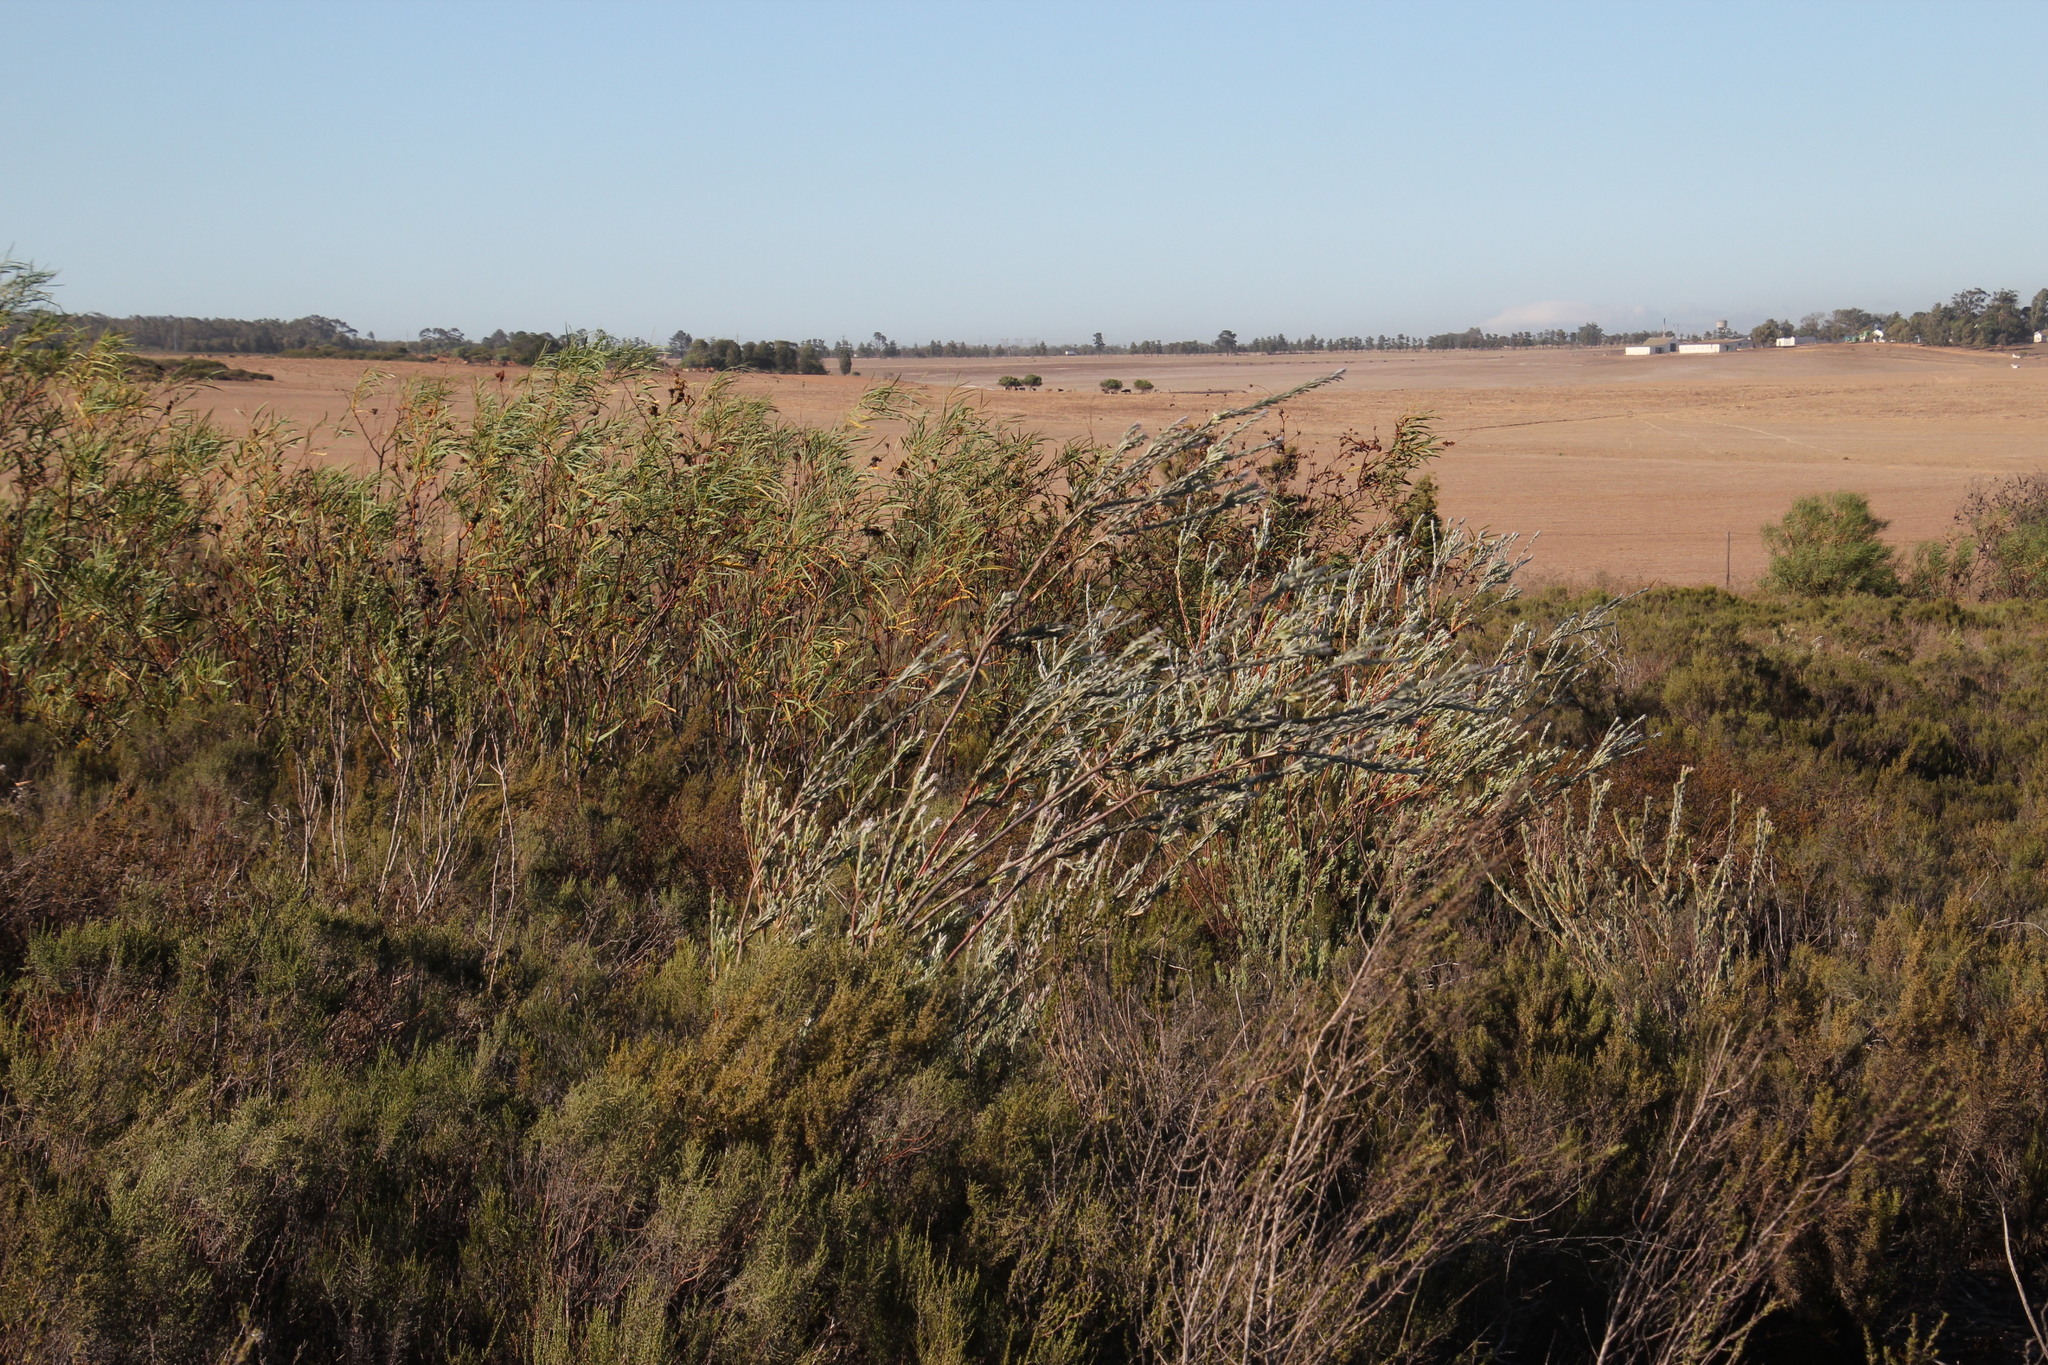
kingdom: Plantae
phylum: Tracheophyta
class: Magnoliopsida
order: Proteales
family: Proteaceae
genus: Leucadendron
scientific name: Leucadendron verticillatum
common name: Klapmuts conebush
